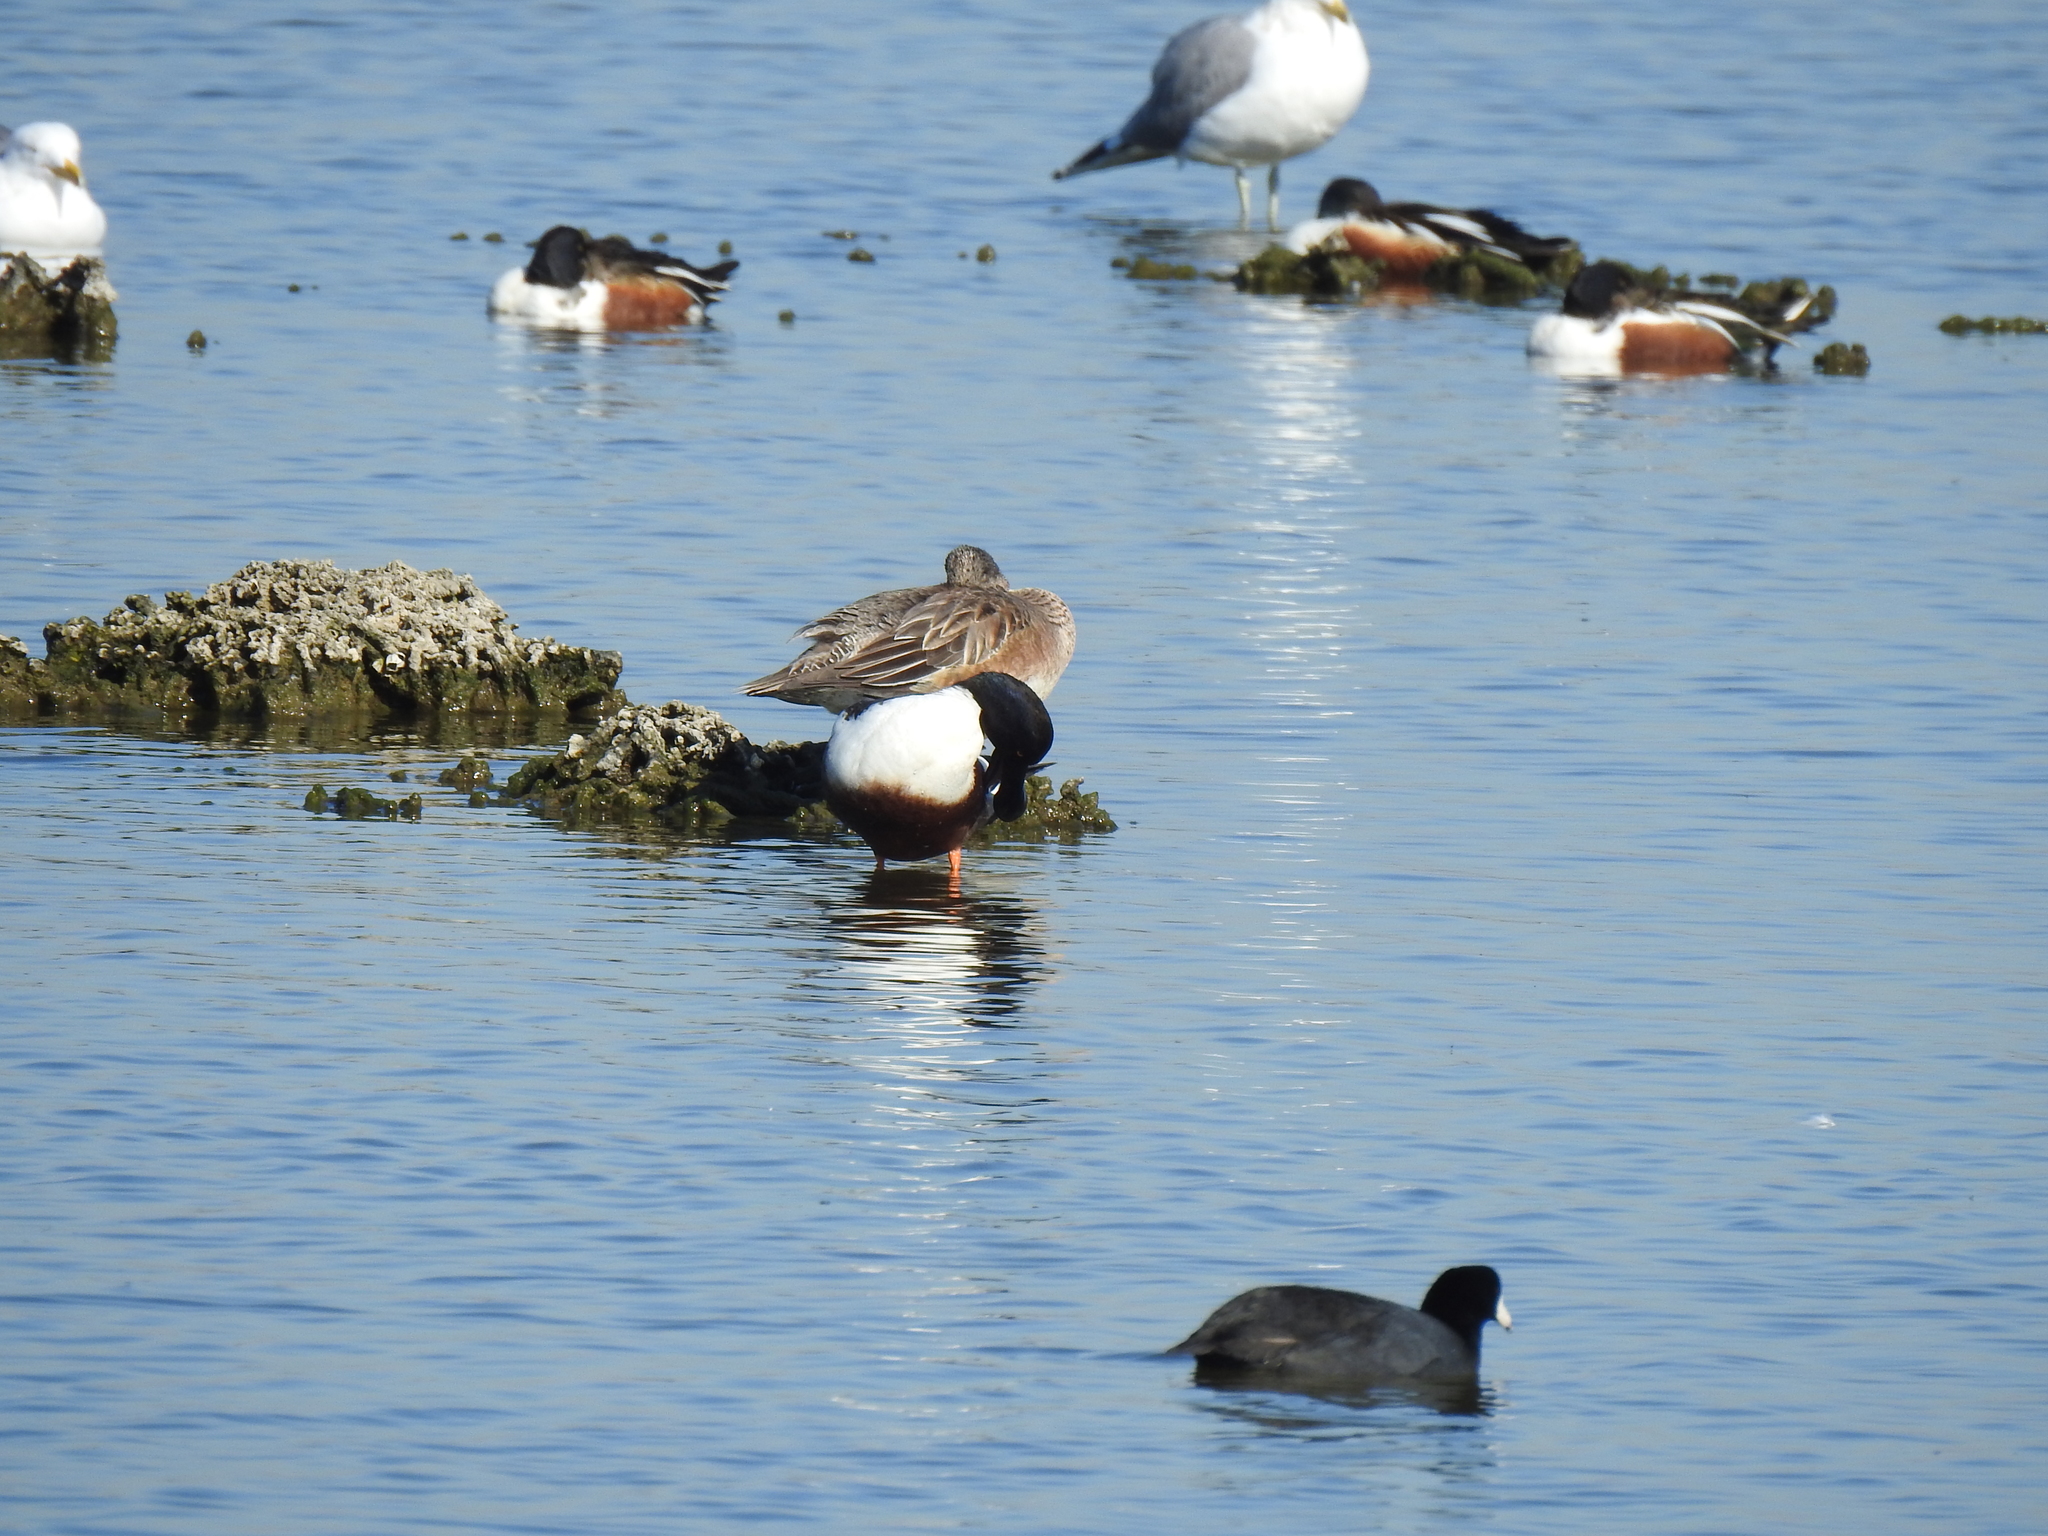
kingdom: Animalia
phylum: Chordata
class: Aves
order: Anseriformes
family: Anatidae
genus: Spatula
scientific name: Spatula clypeata
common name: Northern shoveler
